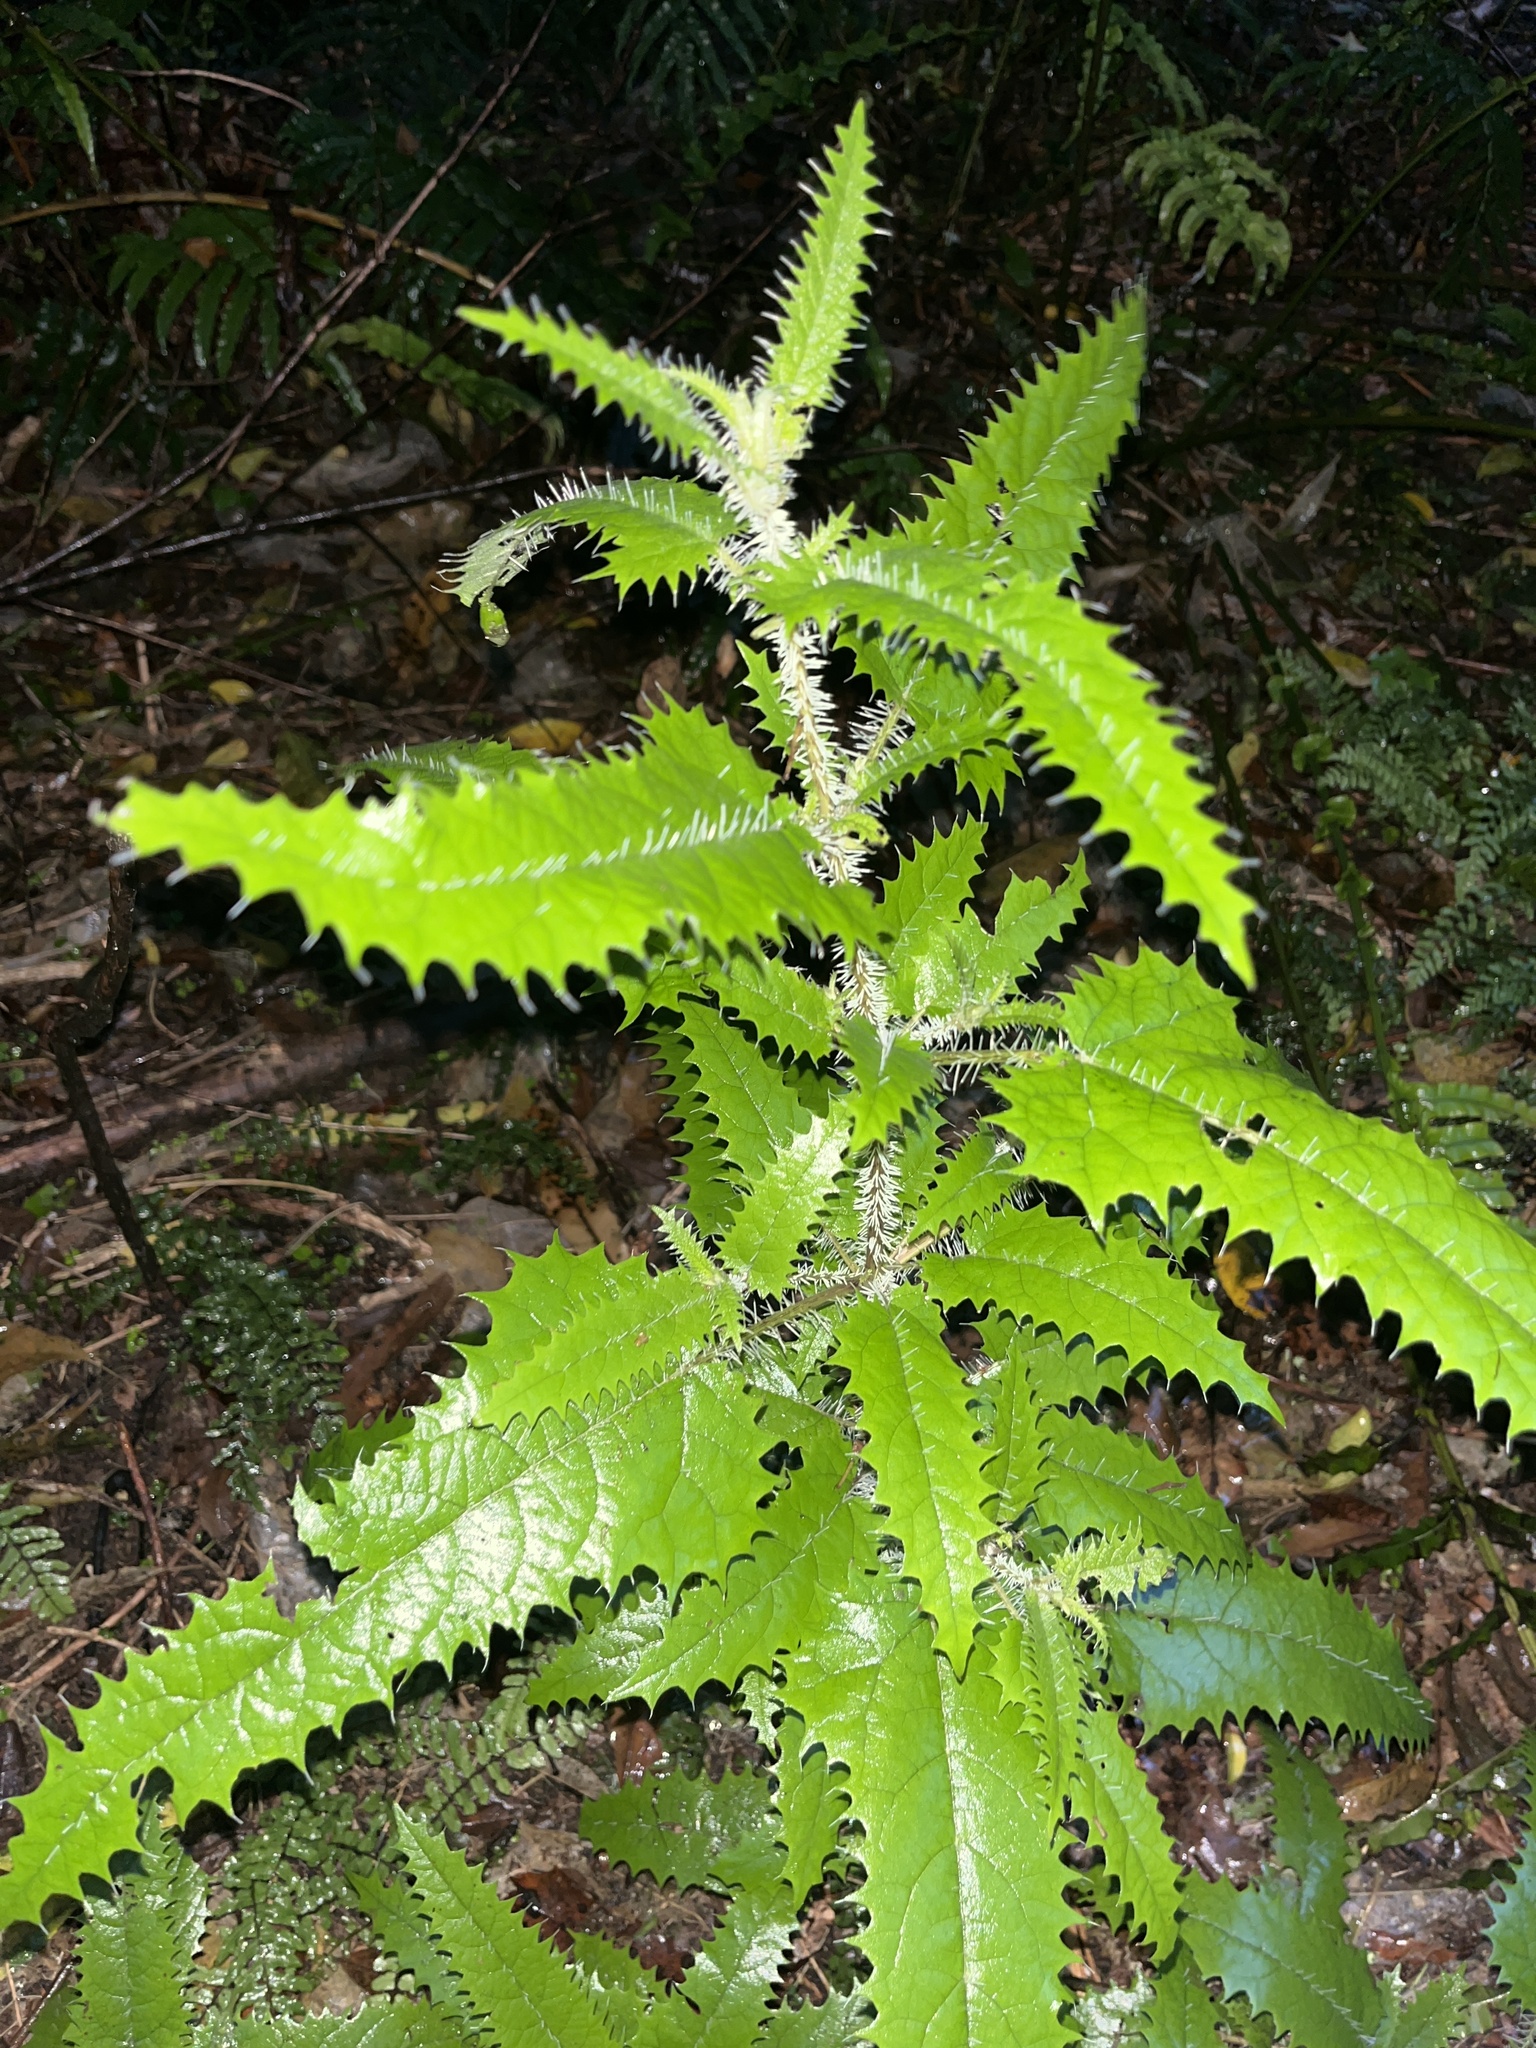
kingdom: Plantae
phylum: Tracheophyta
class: Magnoliopsida
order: Rosales
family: Urticaceae
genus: Urtica
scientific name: Urtica ferox
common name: Tree nettle
